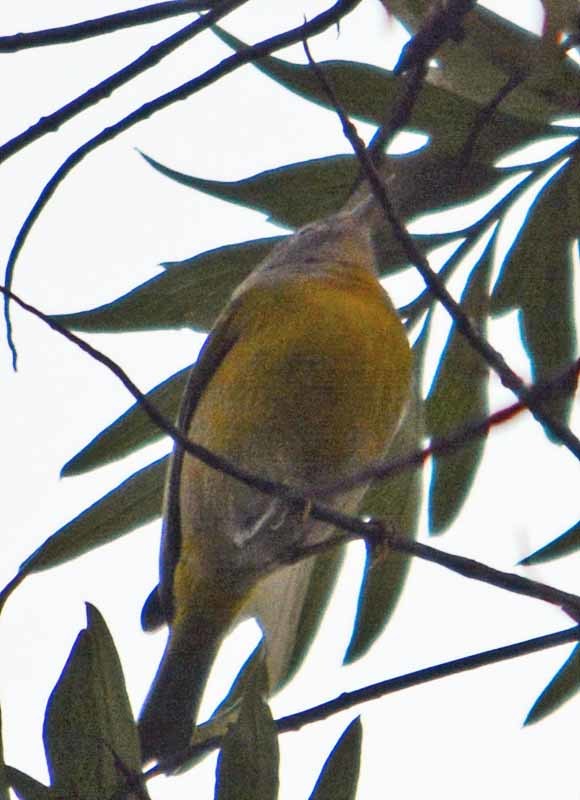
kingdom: Animalia
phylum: Chordata
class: Aves
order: Passeriformes
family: Parulidae
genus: Leiothlypis
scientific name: Leiothlypis ruficapilla
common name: Nashville warbler
